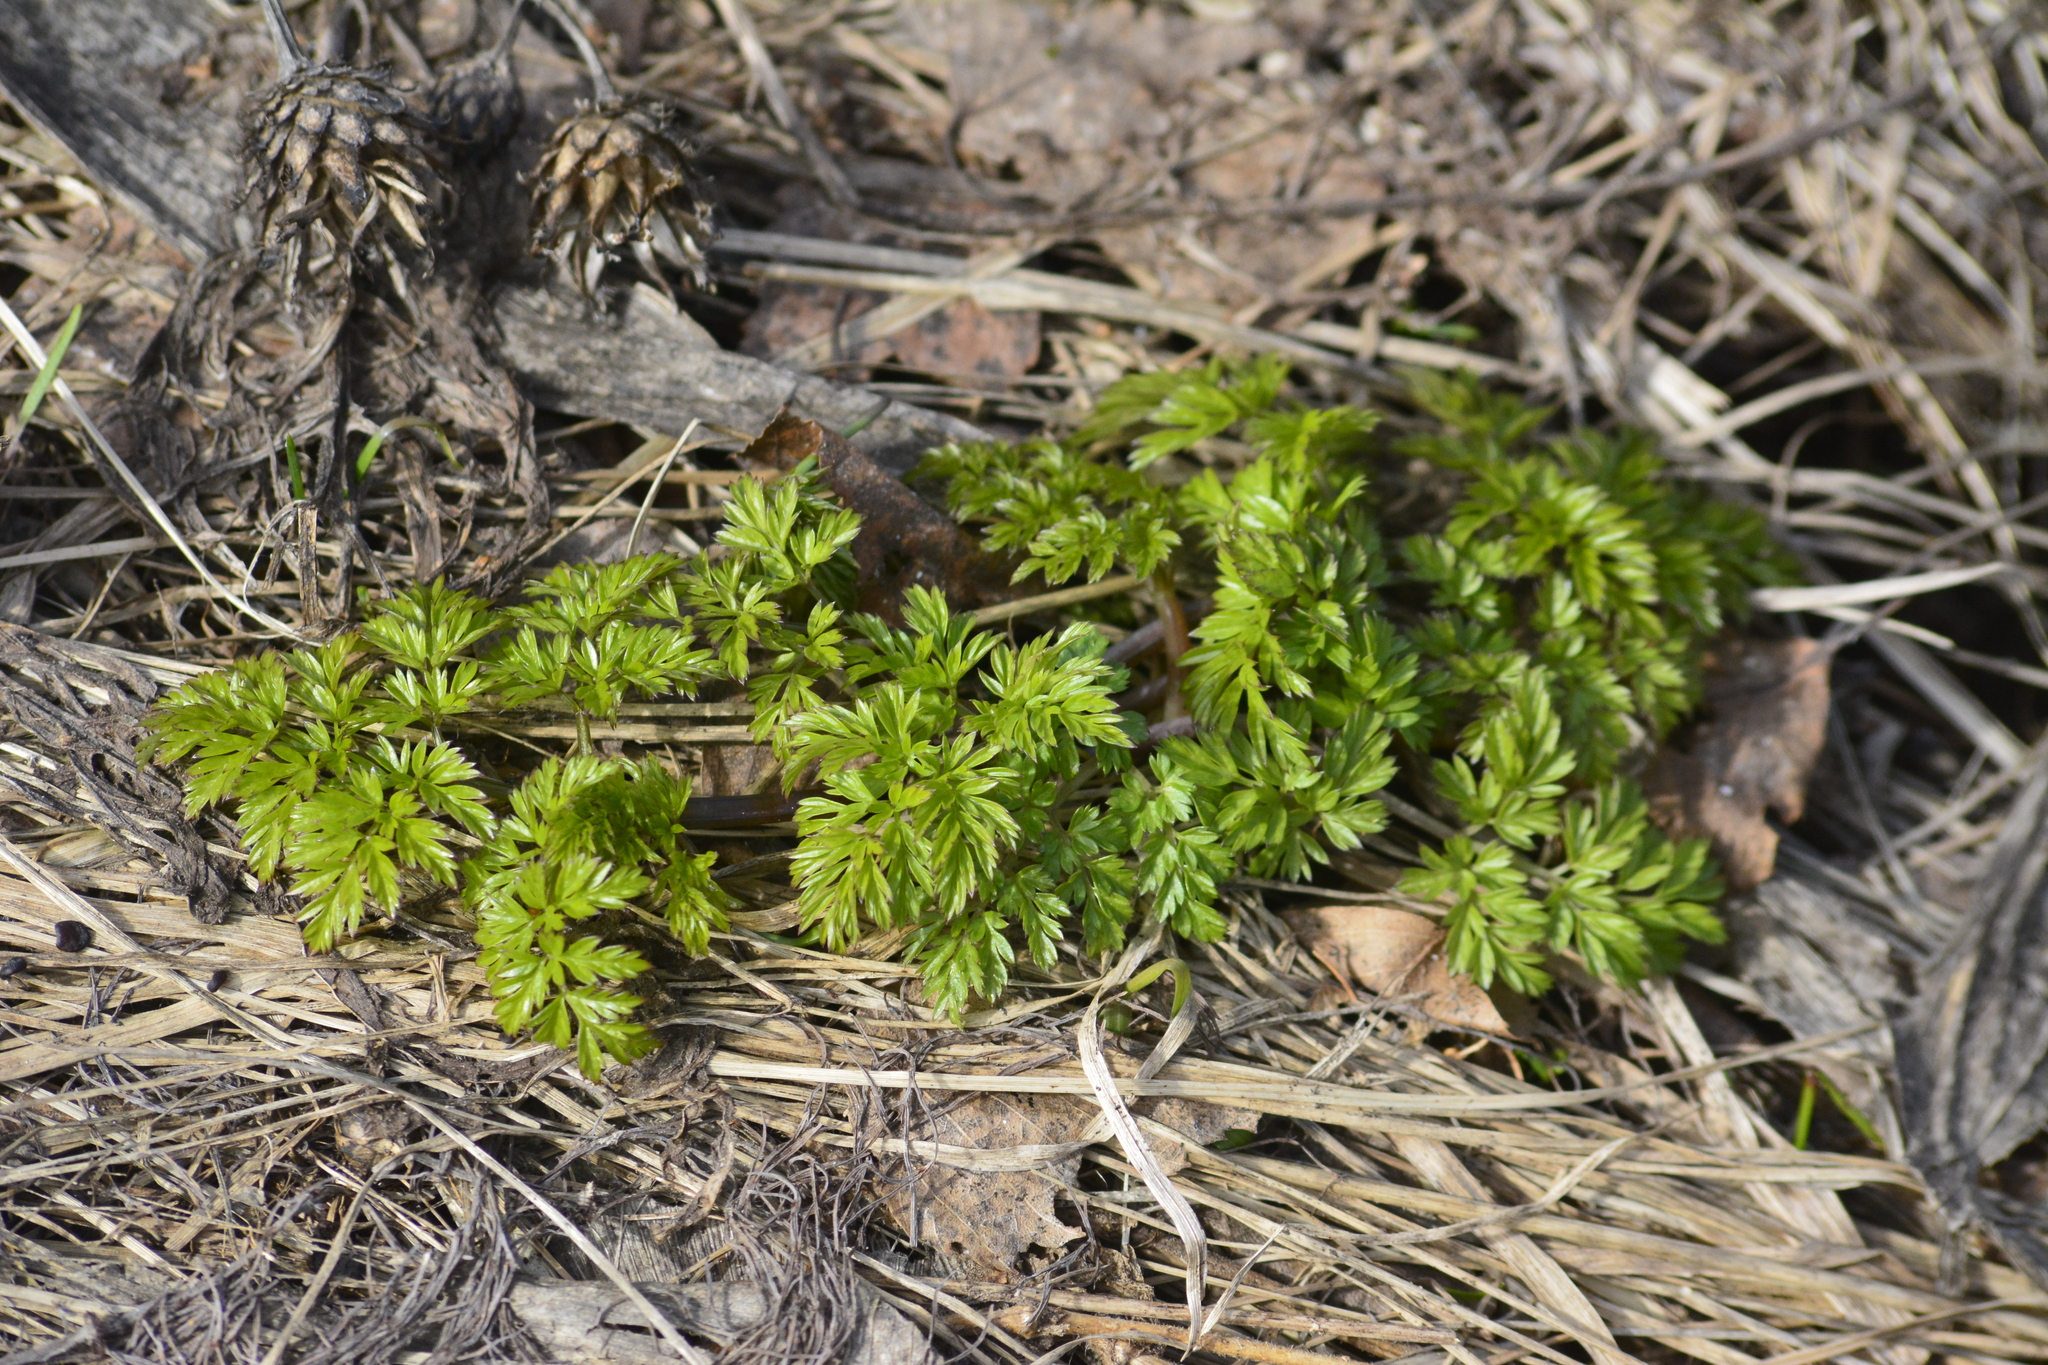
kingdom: Plantae
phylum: Tracheophyta
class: Magnoliopsida
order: Apiales
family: Apiaceae
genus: Anthriscus
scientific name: Anthriscus sylvestris
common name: Cow parsley
